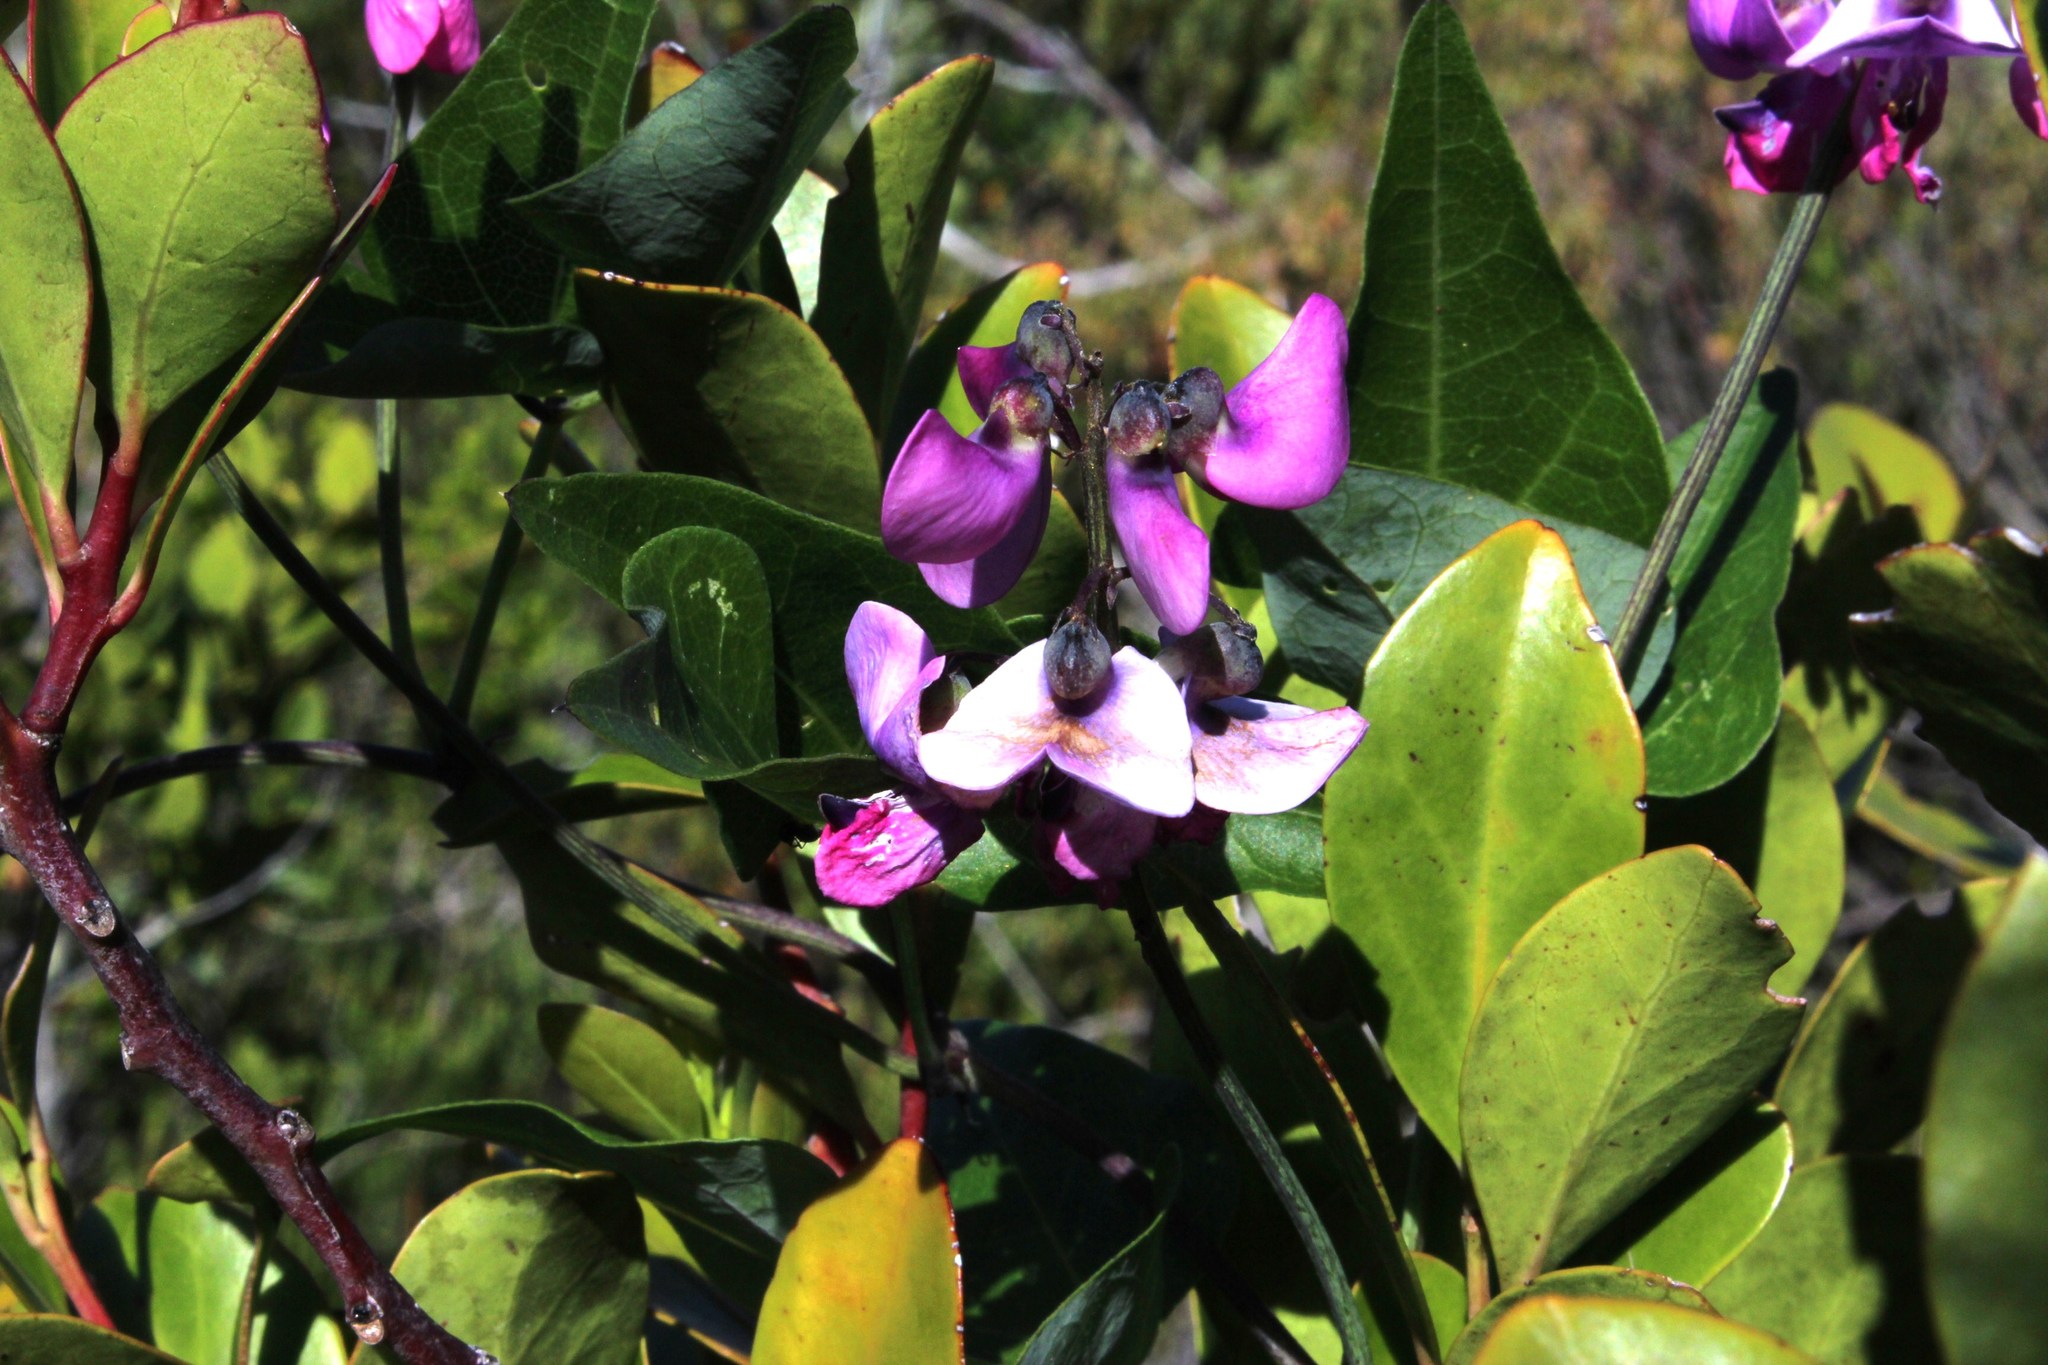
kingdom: Plantae
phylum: Tracheophyta
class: Magnoliopsida
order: Fabales
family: Fabaceae
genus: Dipogon
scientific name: Dipogon lignosus
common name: Okie bean
